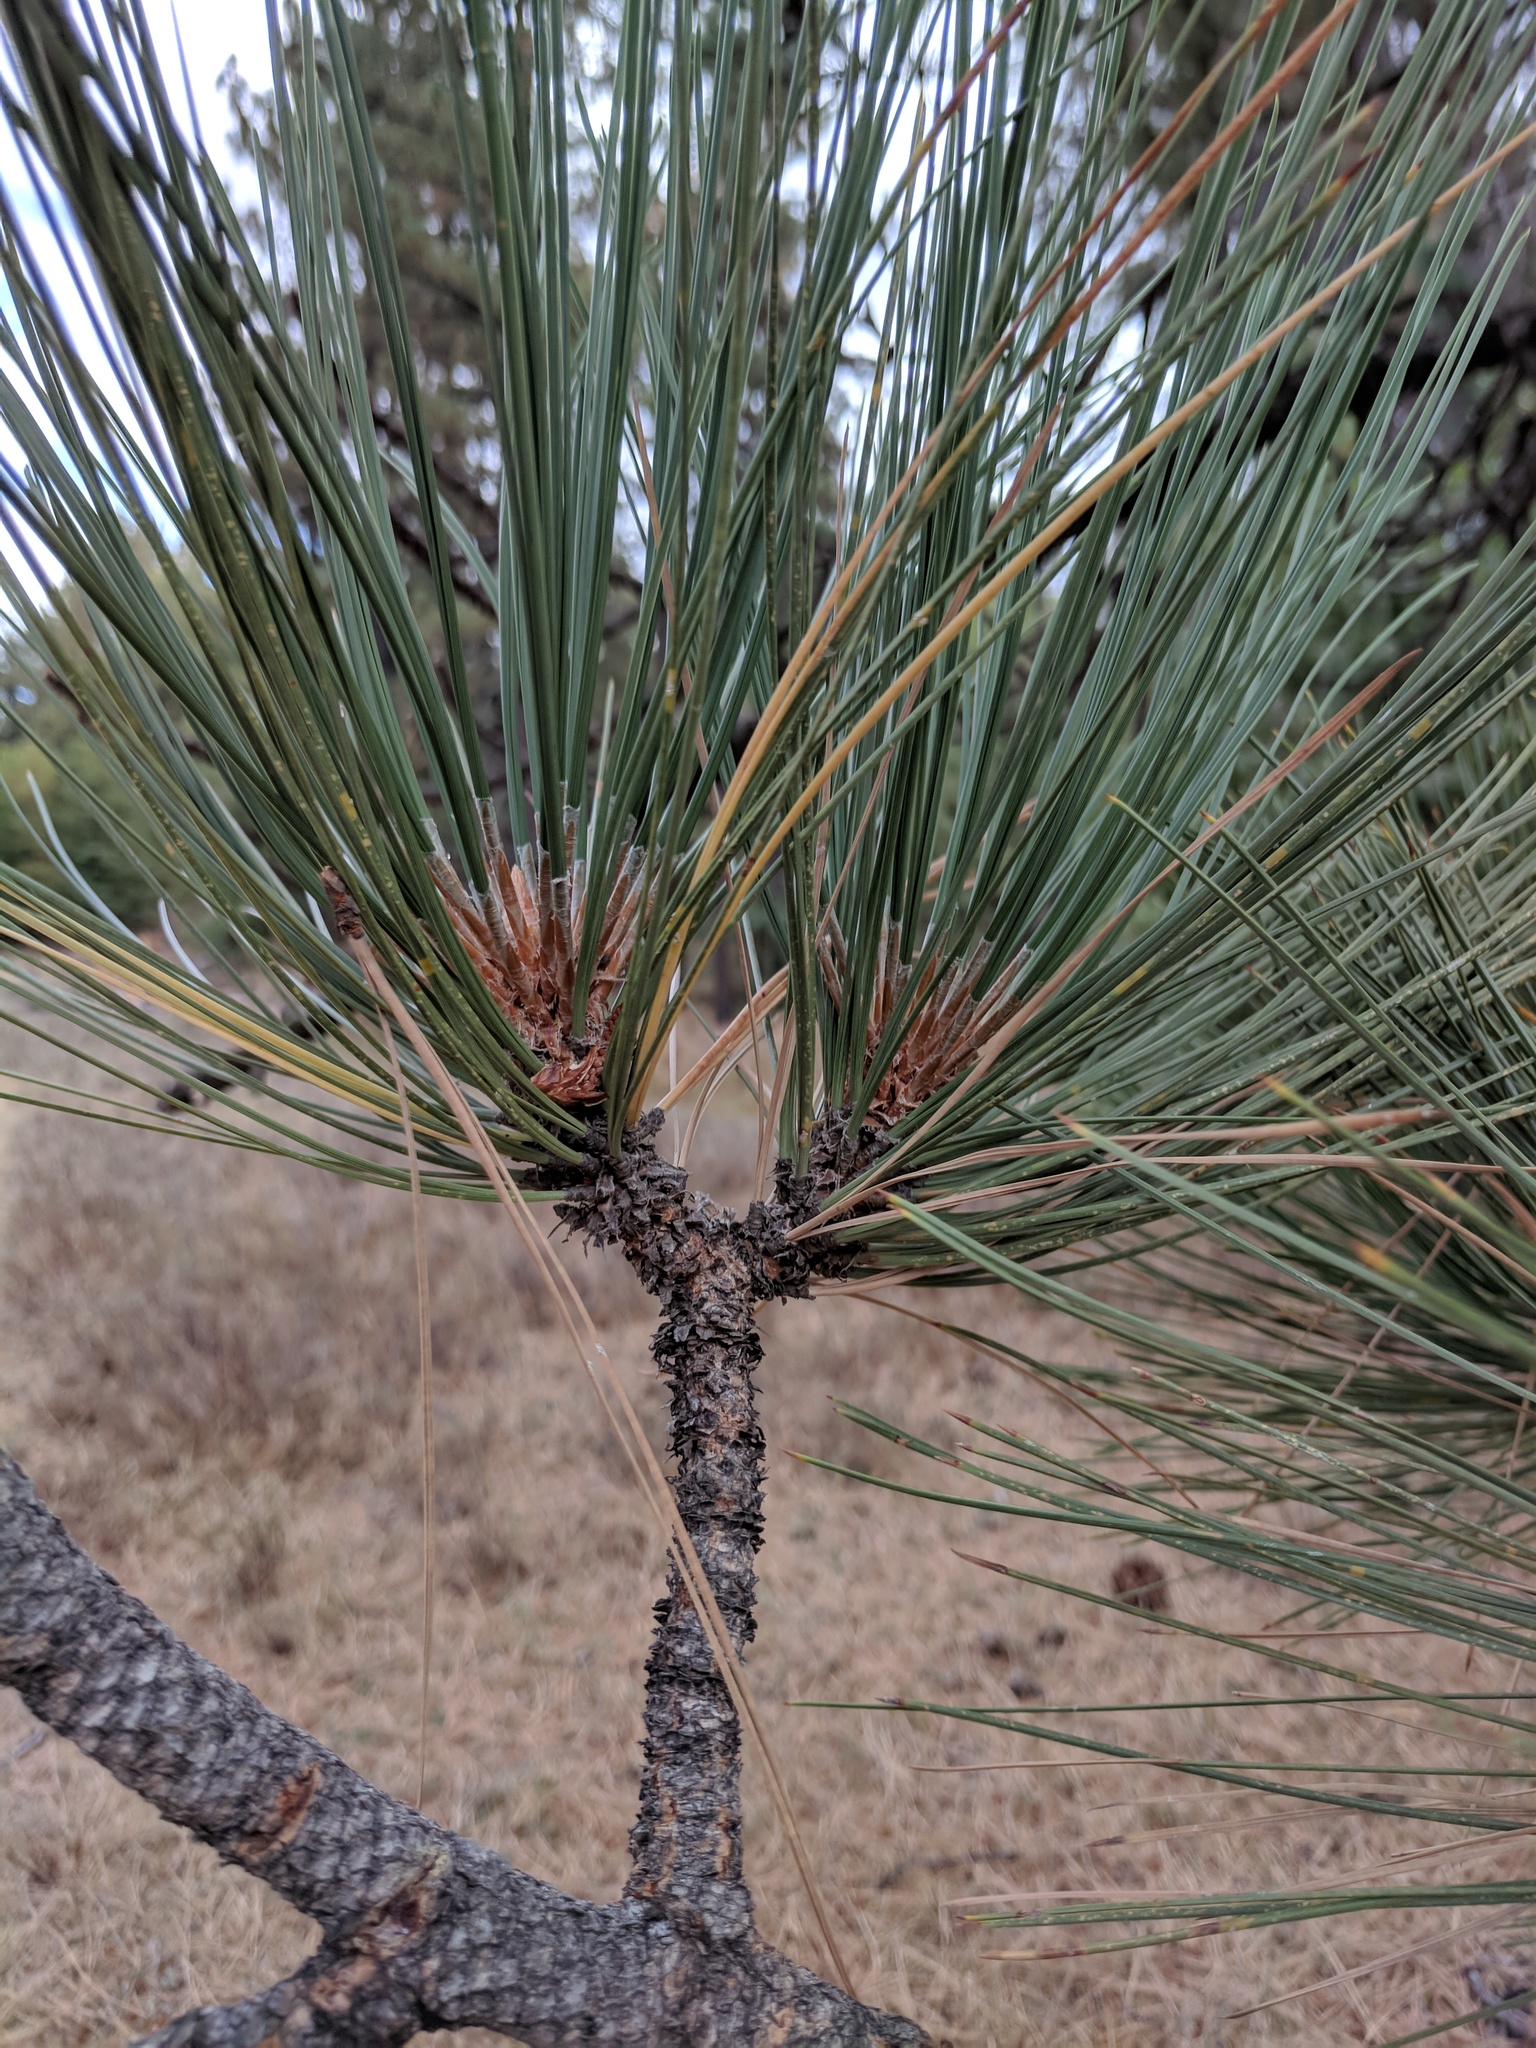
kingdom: Plantae
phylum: Tracheophyta
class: Pinopsida
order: Pinales
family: Pinaceae
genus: Pinus
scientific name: Pinus jeffreyi
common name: Jeffrey pine
